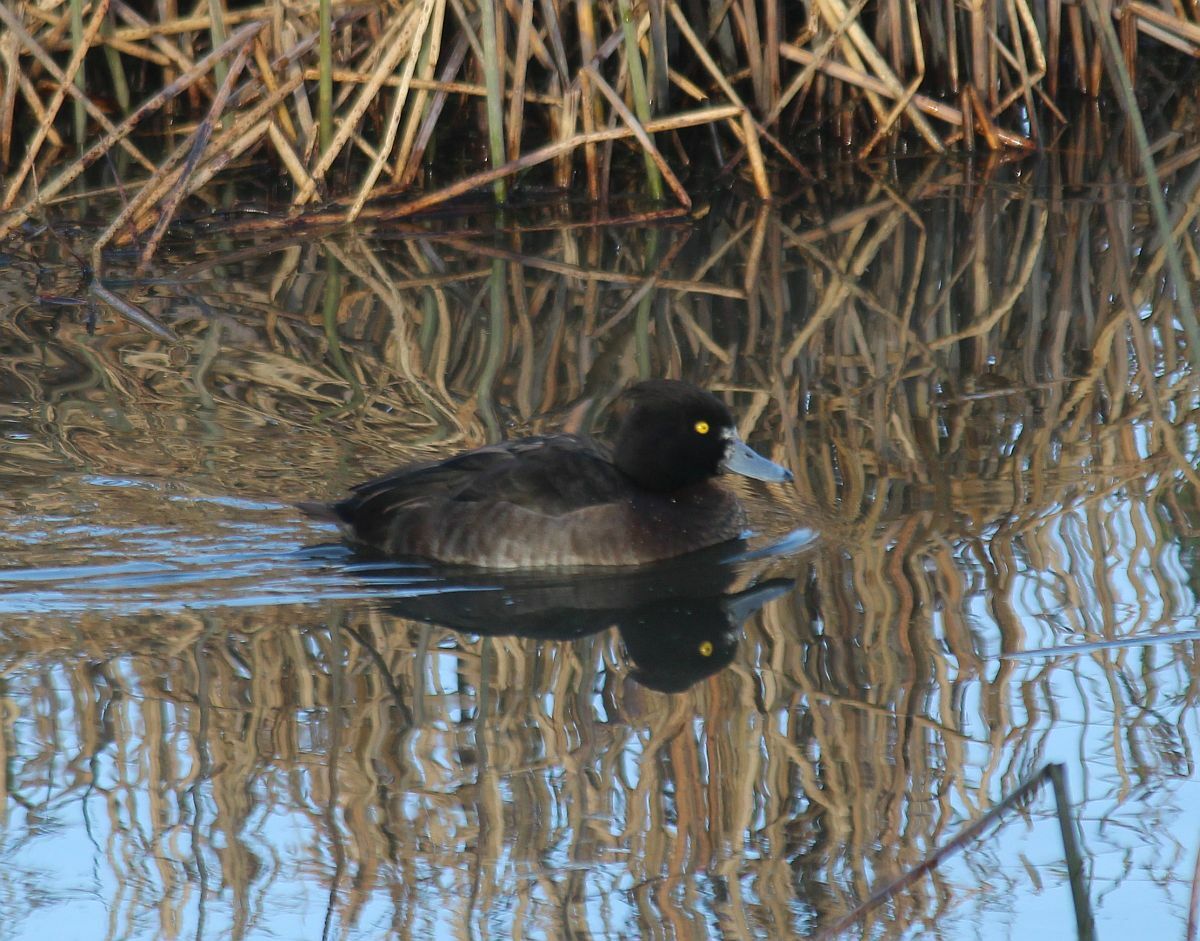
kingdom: Animalia
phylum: Chordata
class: Aves
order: Anseriformes
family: Anatidae
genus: Aythya
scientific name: Aythya fuligula
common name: Tufted duck
